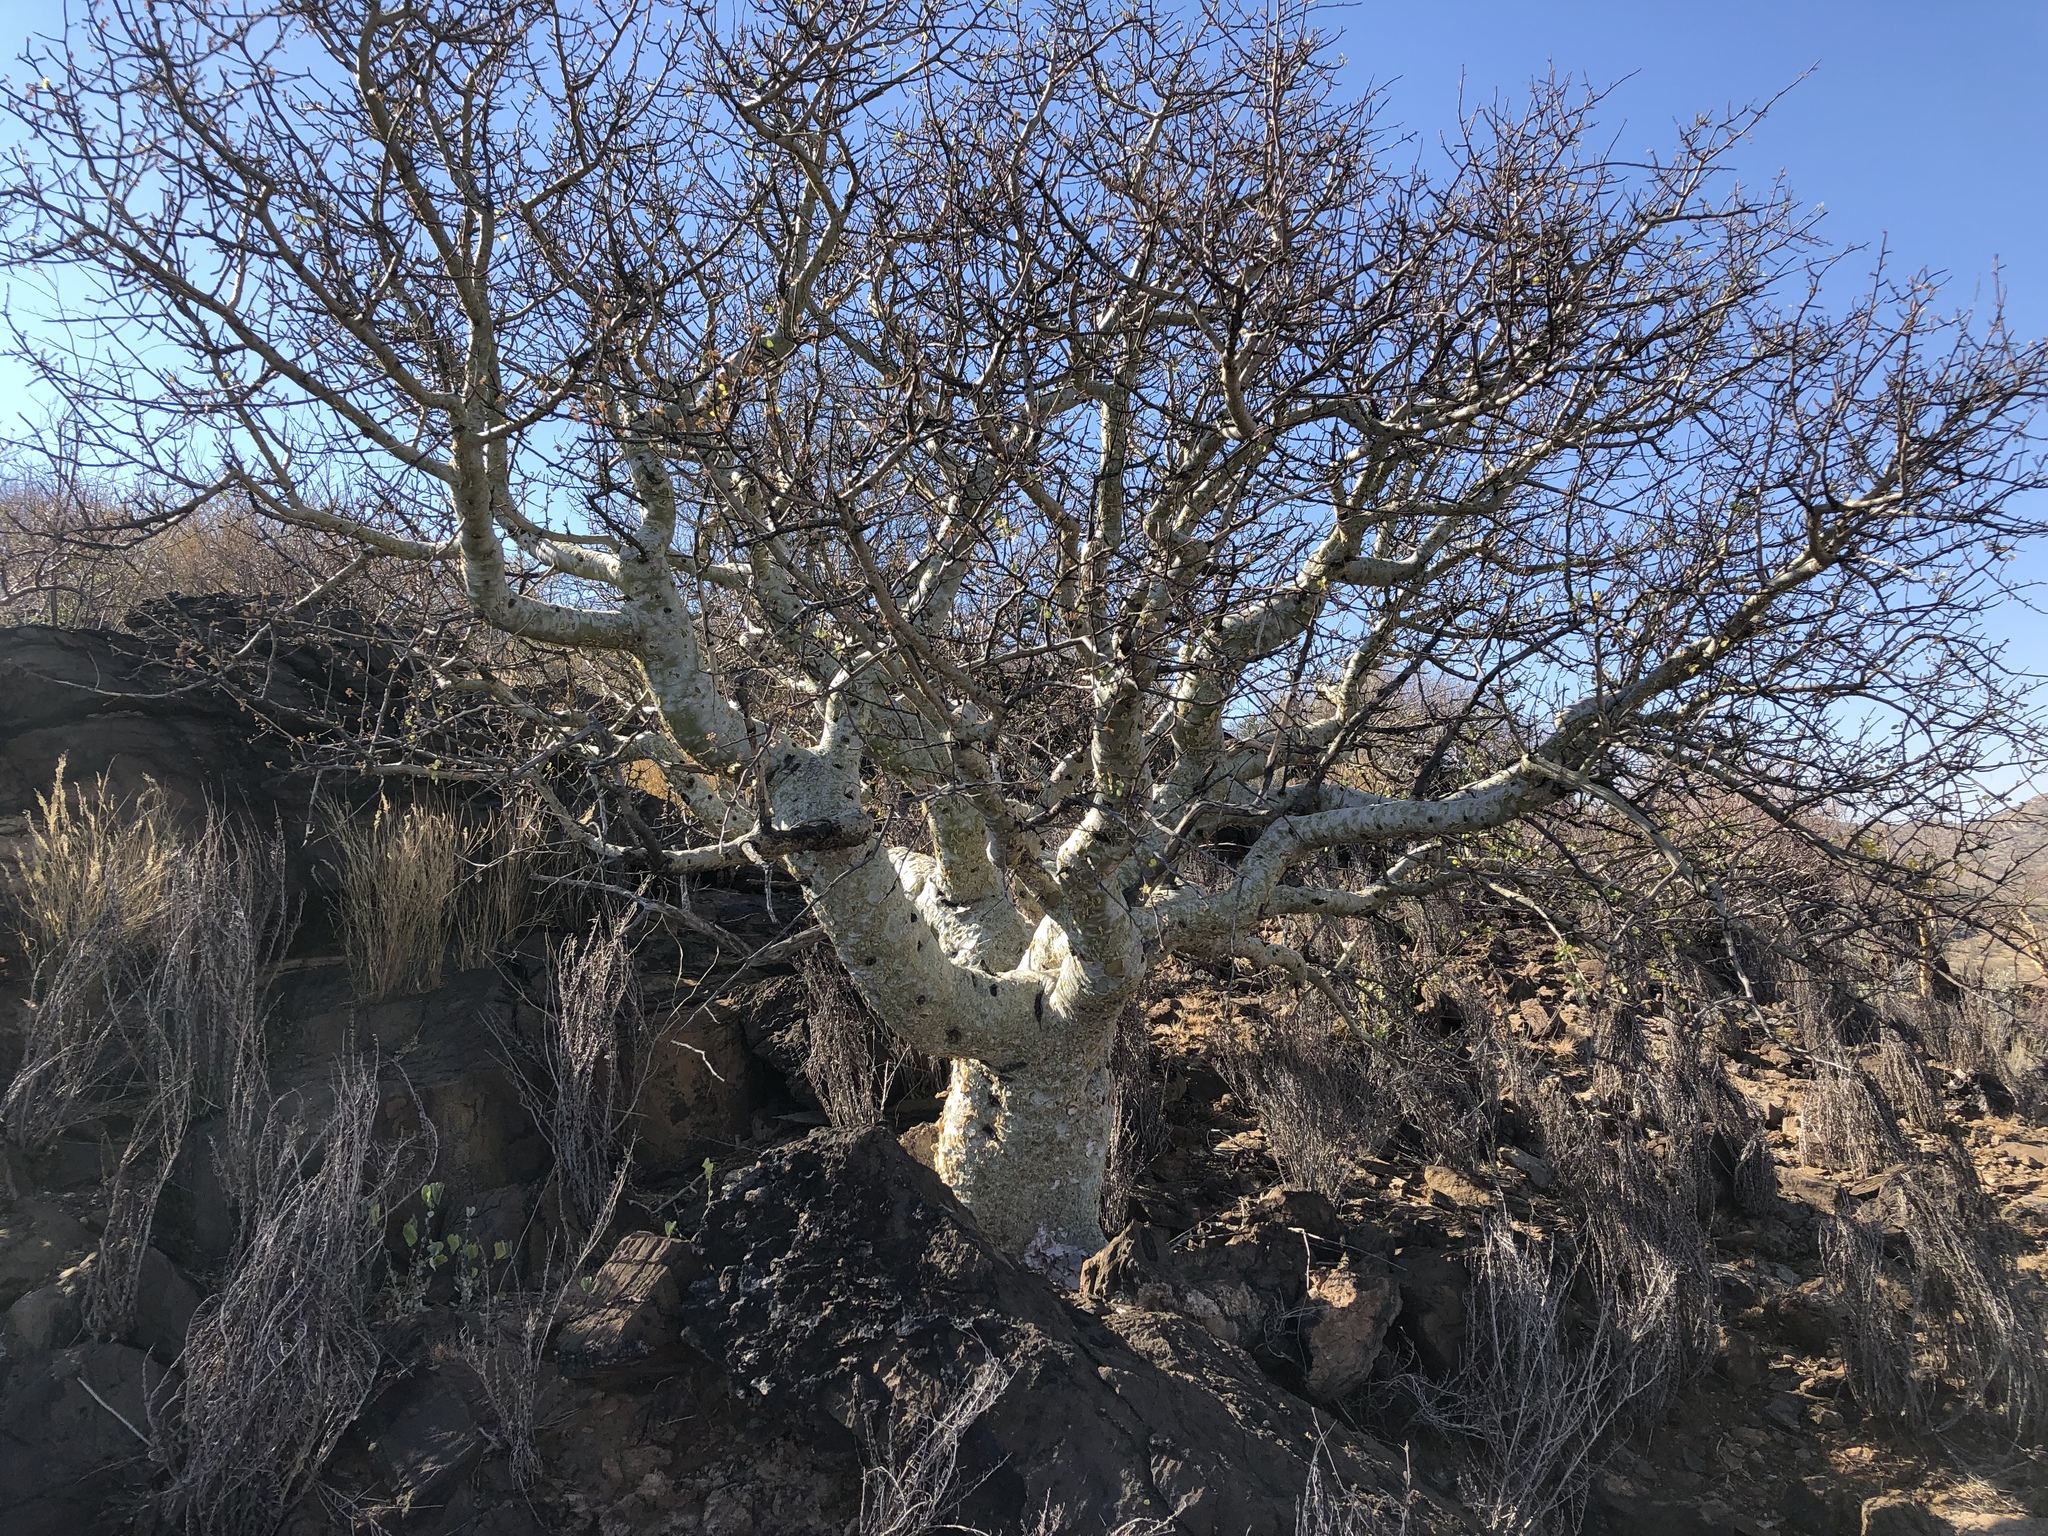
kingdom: Plantae
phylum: Tracheophyta
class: Magnoliopsida
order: Sapindales
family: Burseraceae
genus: Commiphora
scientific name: Commiphora tenuipetiolata
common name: Satin-bark corkwood
